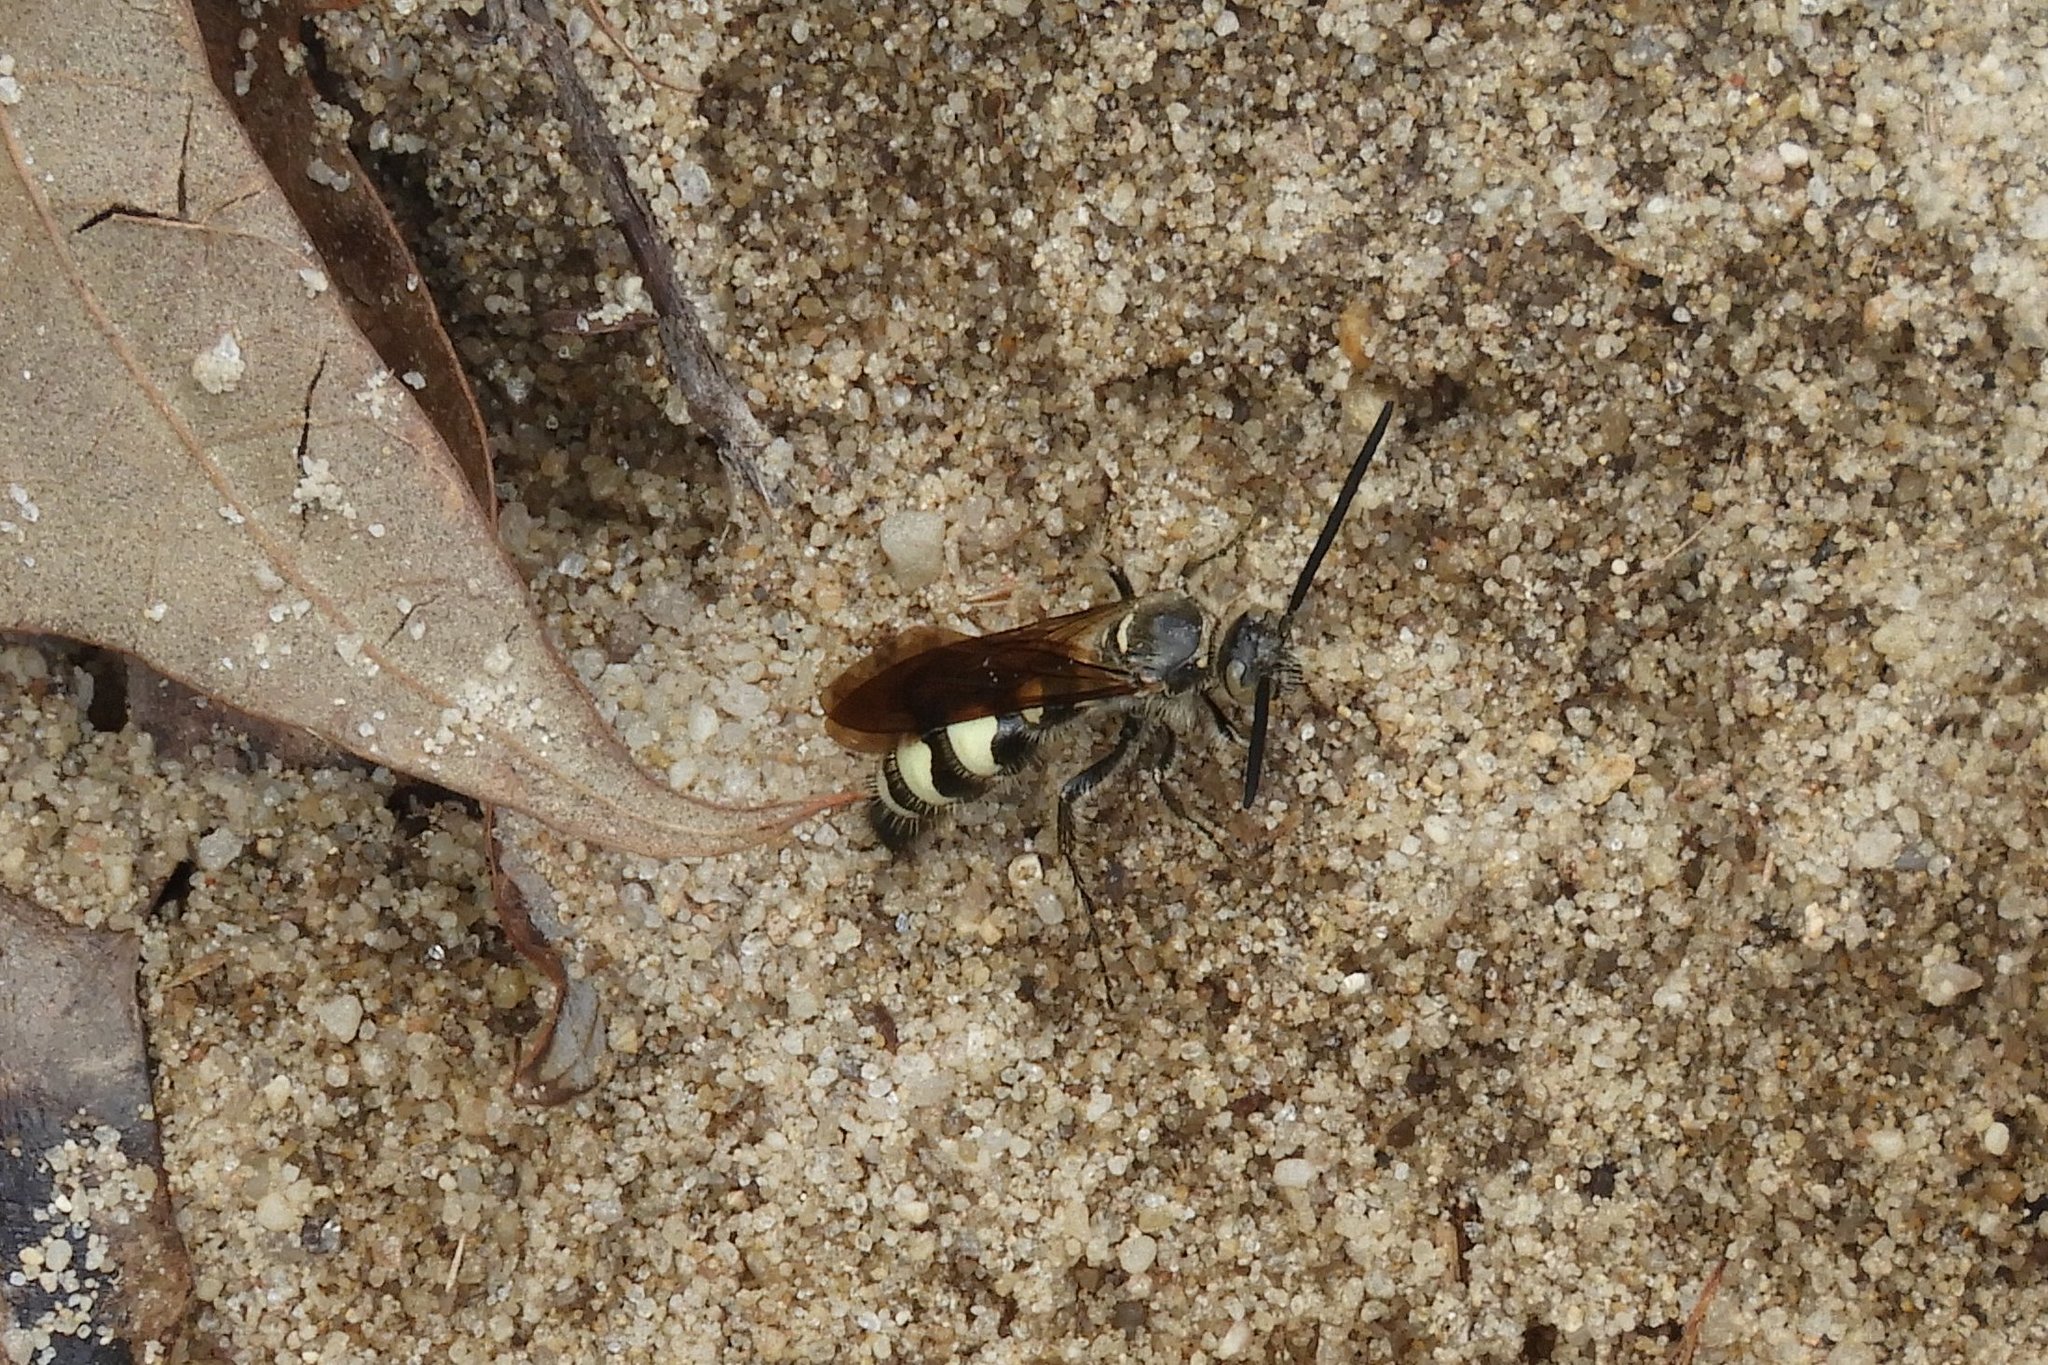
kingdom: Animalia
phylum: Arthropoda
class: Insecta
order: Hymenoptera
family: Scoliidae
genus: Dielis
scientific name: Dielis
